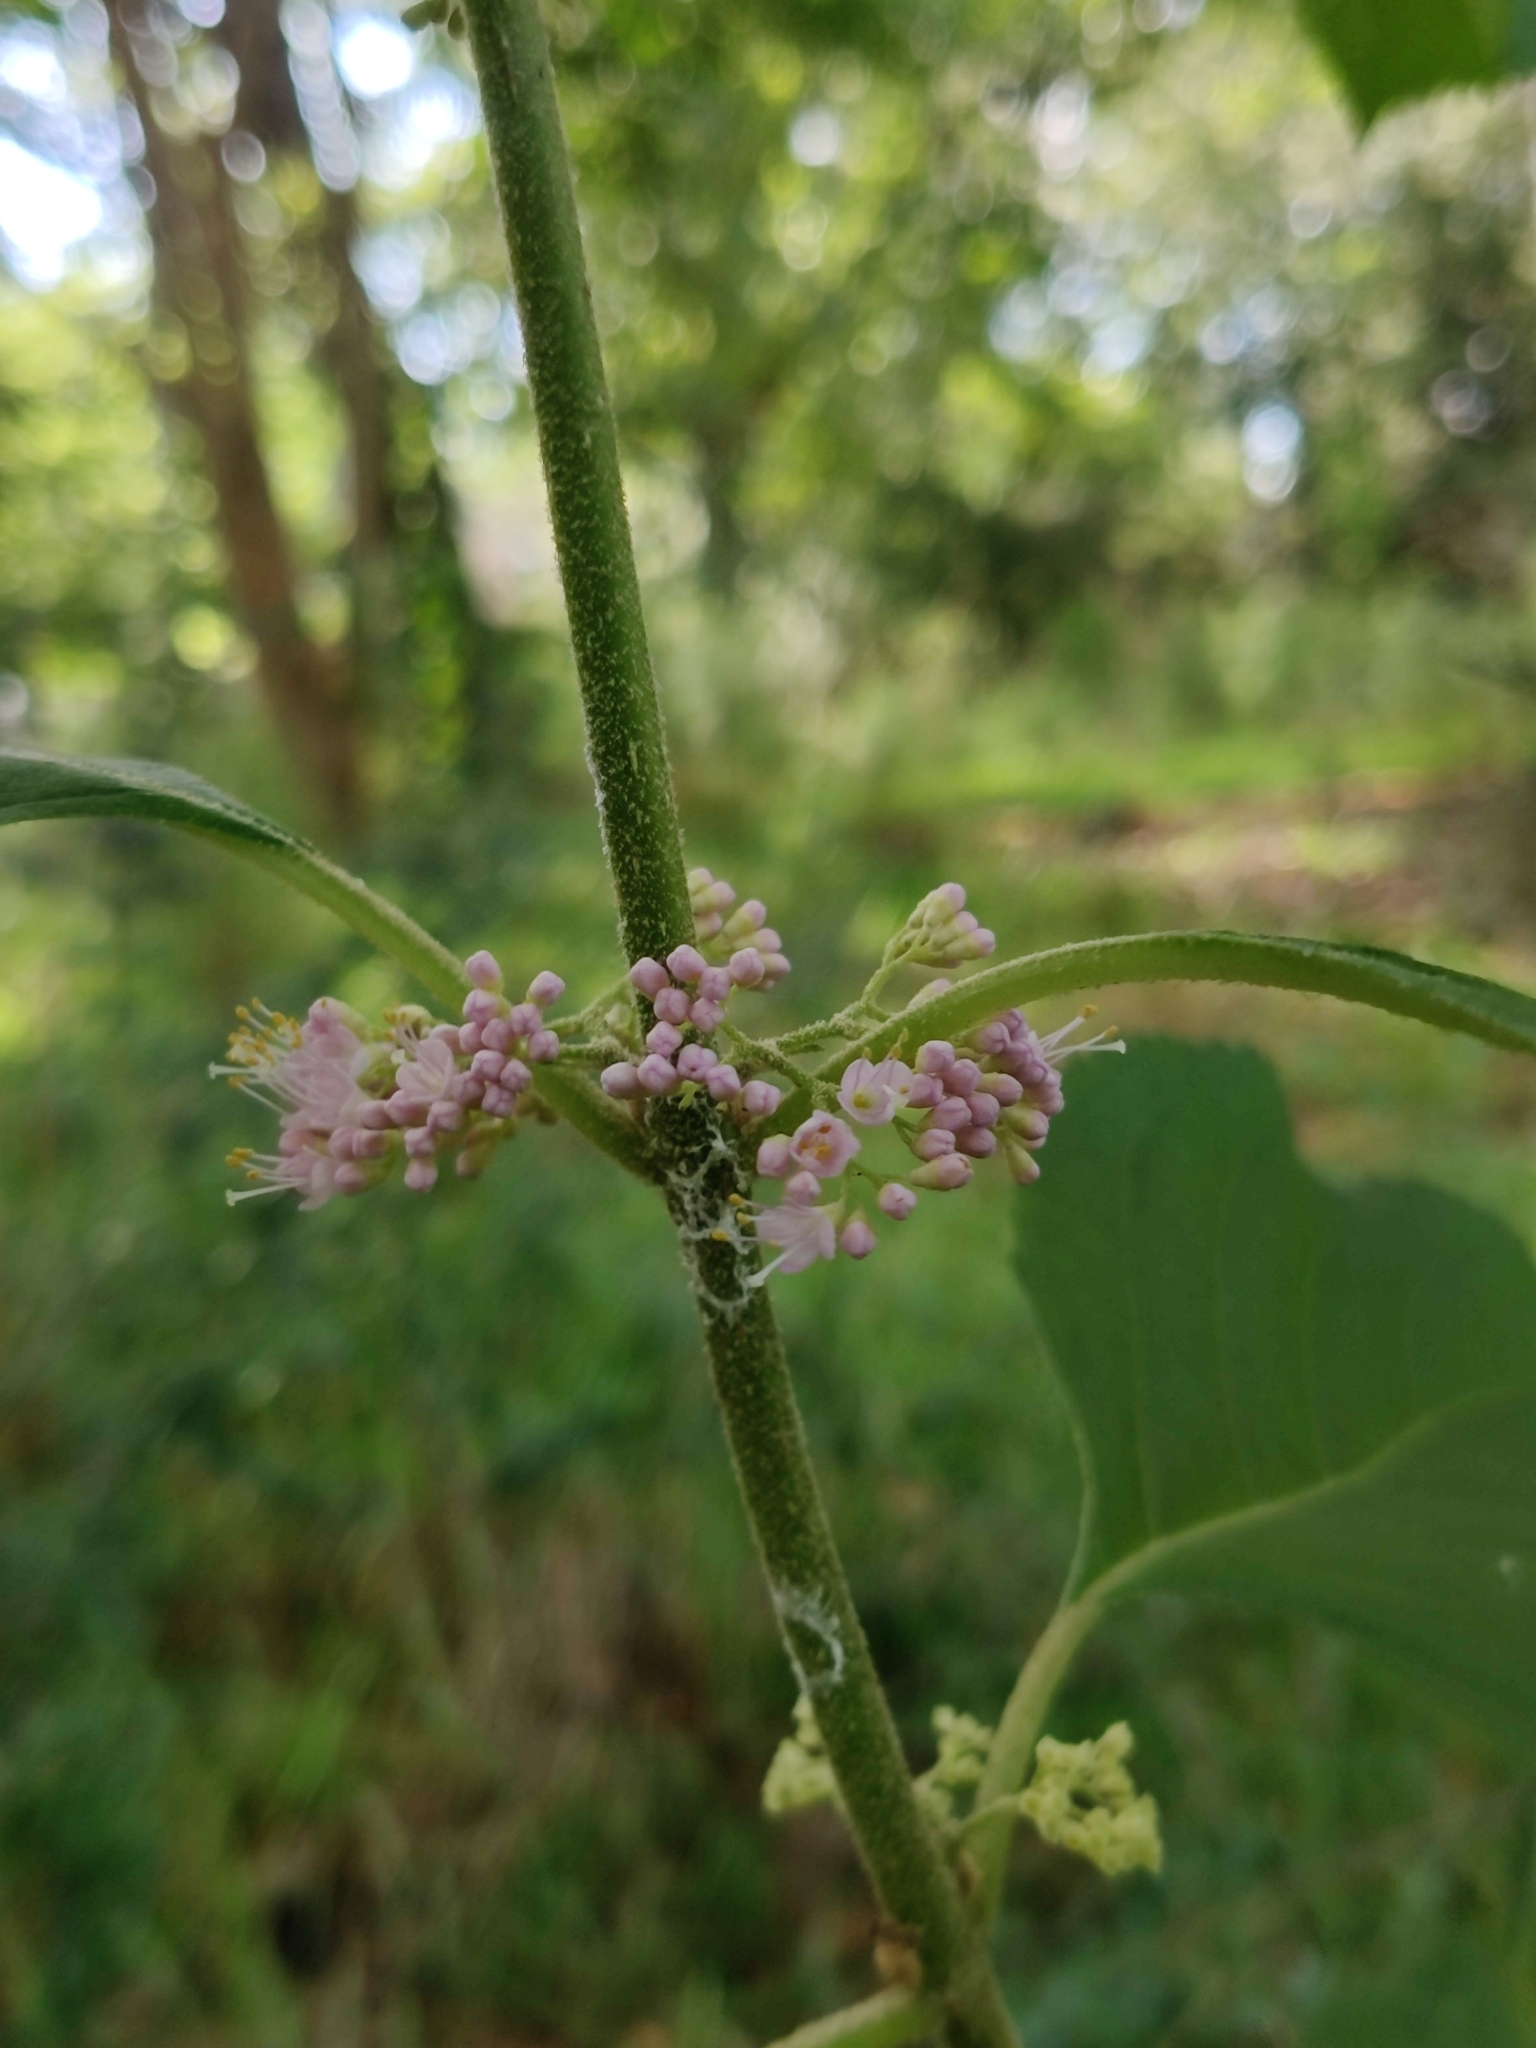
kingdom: Plantae
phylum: Tracheophyta
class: Magnoliopsida
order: Lamiales
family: Lamiaceae
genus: Callicarpa
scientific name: Callicarpa americana
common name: American beautyberry
